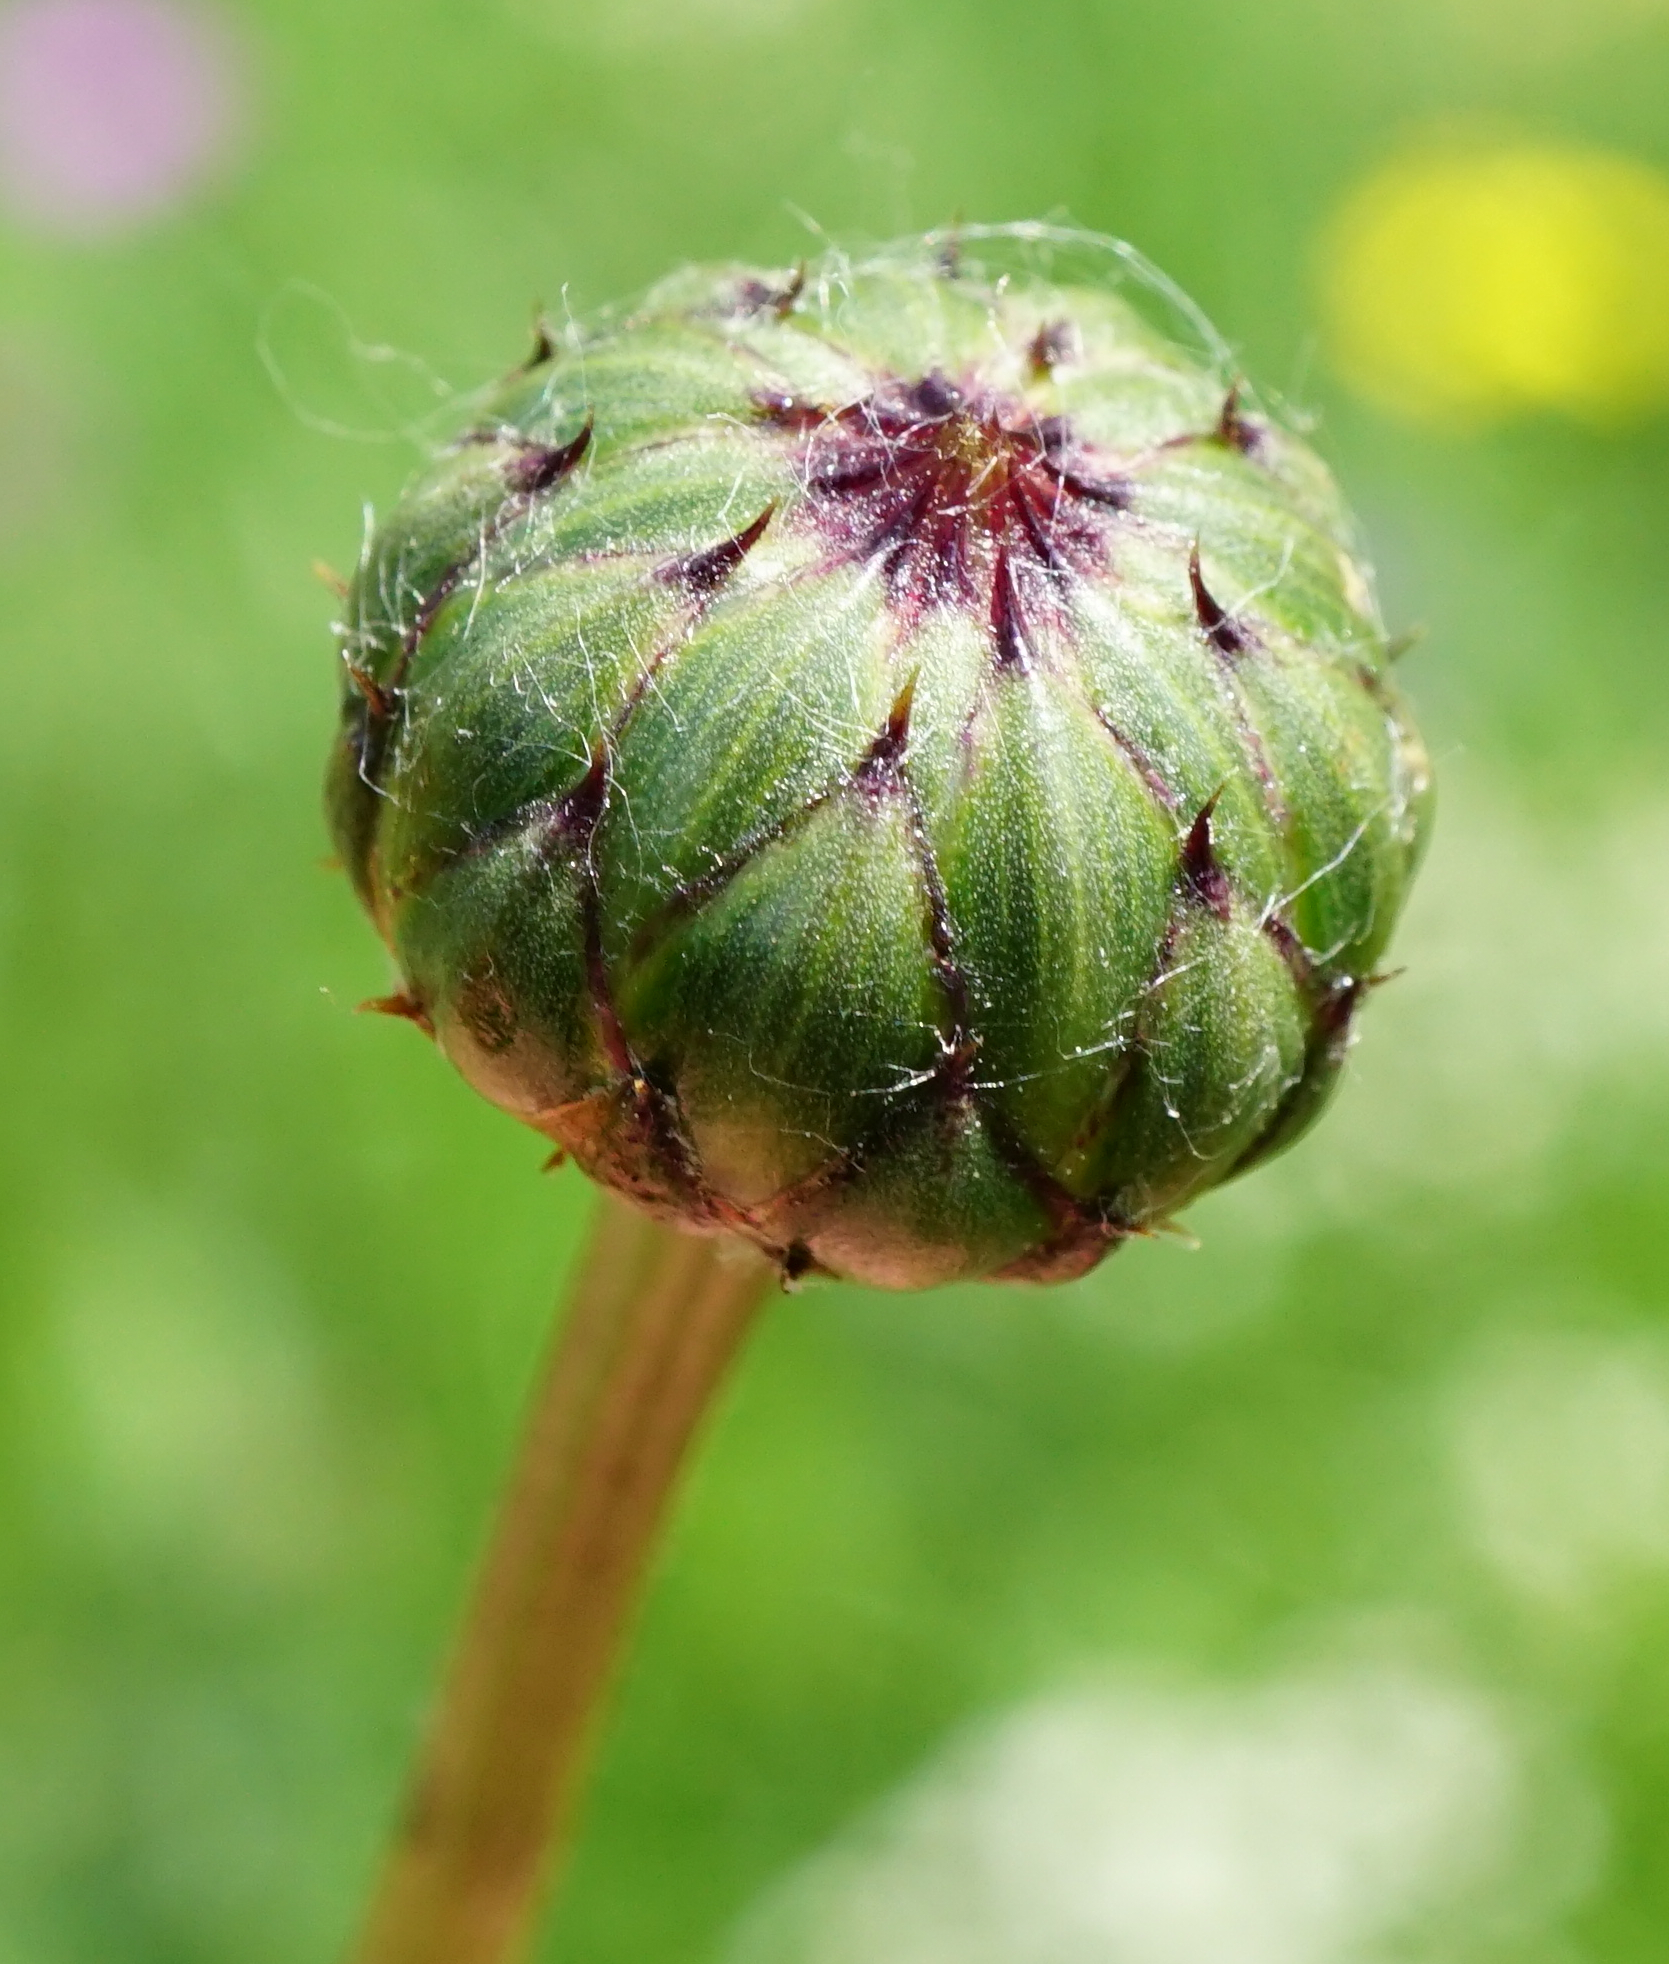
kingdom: Plantae
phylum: Tracheophyta
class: Magnoliopsida
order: Asterales
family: Asteraceae
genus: Klasea
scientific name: Klasea lycopifolia
